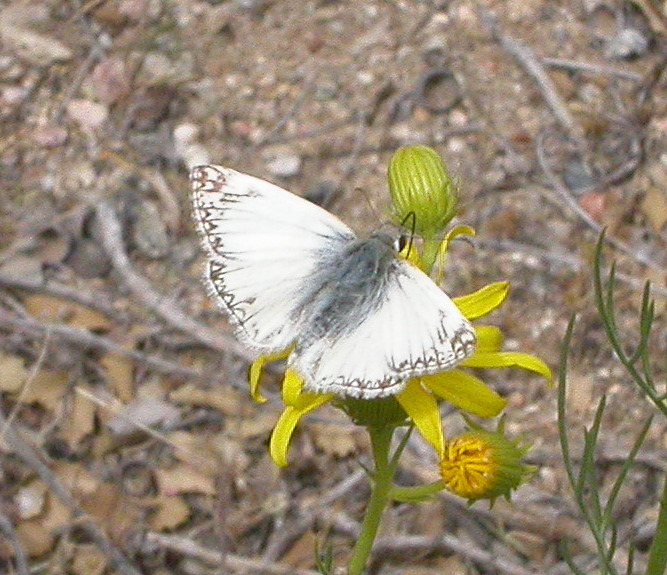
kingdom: Animalia
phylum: Arthropoda
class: Insecta
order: Lepidoptera
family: Hesperiidae
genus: Heliopetes
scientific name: Heliopetes ericetorum
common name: Northern white-skipper
